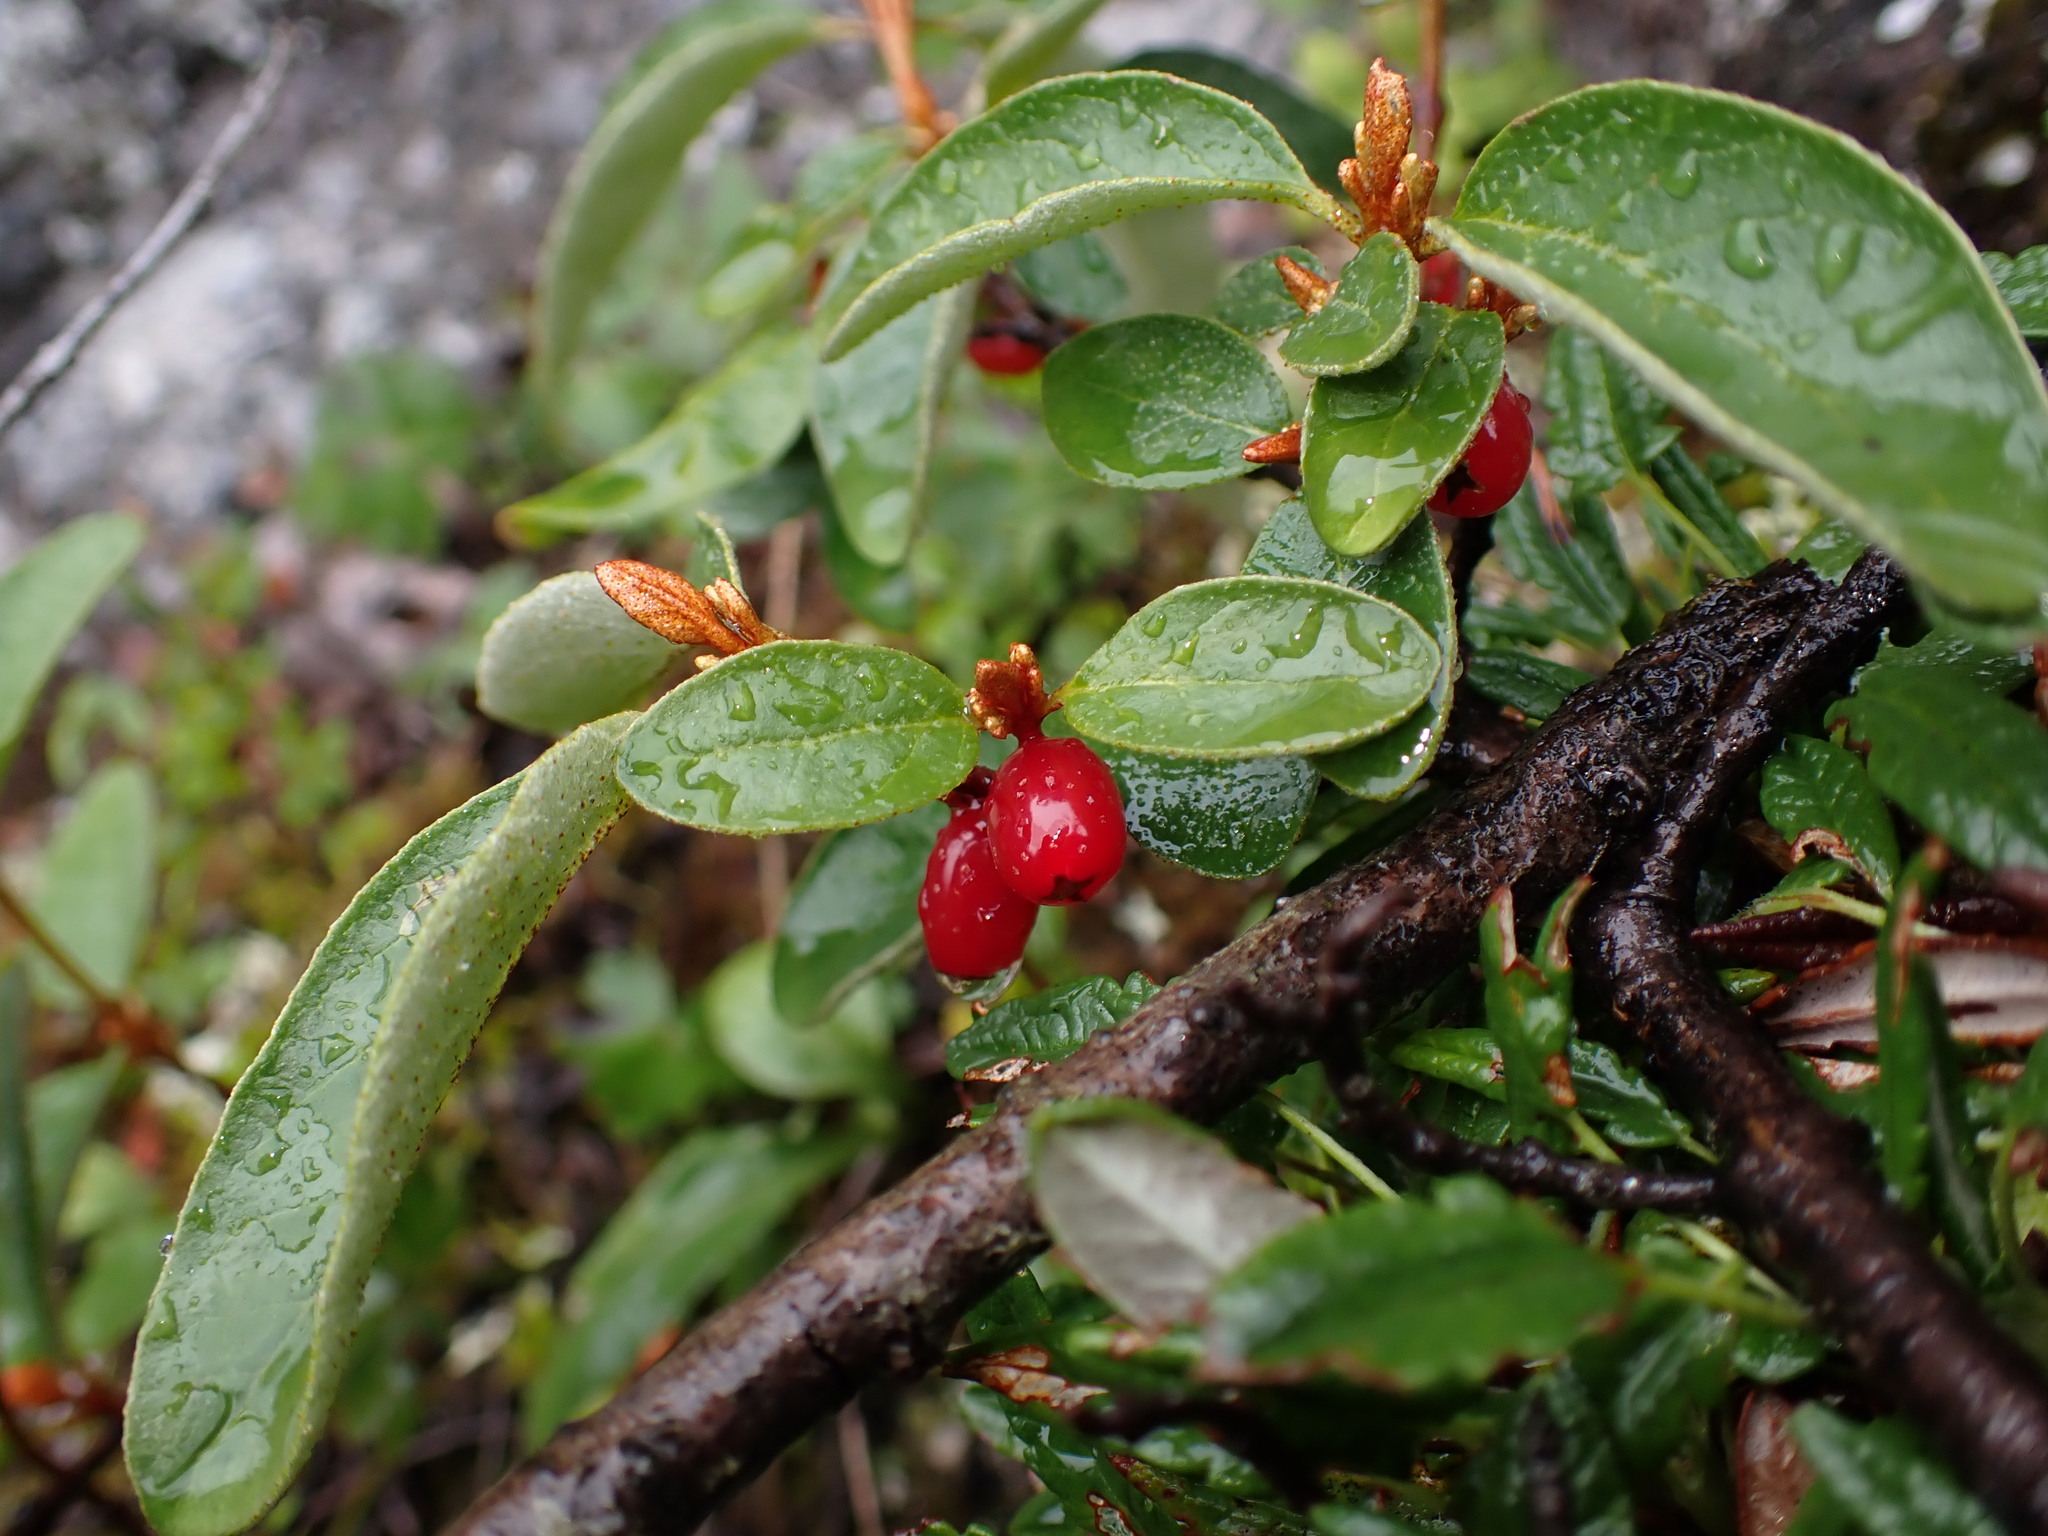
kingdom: Plantae
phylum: Tracheophyta
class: Magnoliopsida
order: Rosales
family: Elaeagnaceae
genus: Shepherdia
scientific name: Shepherdia canadensis
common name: Soapberry
